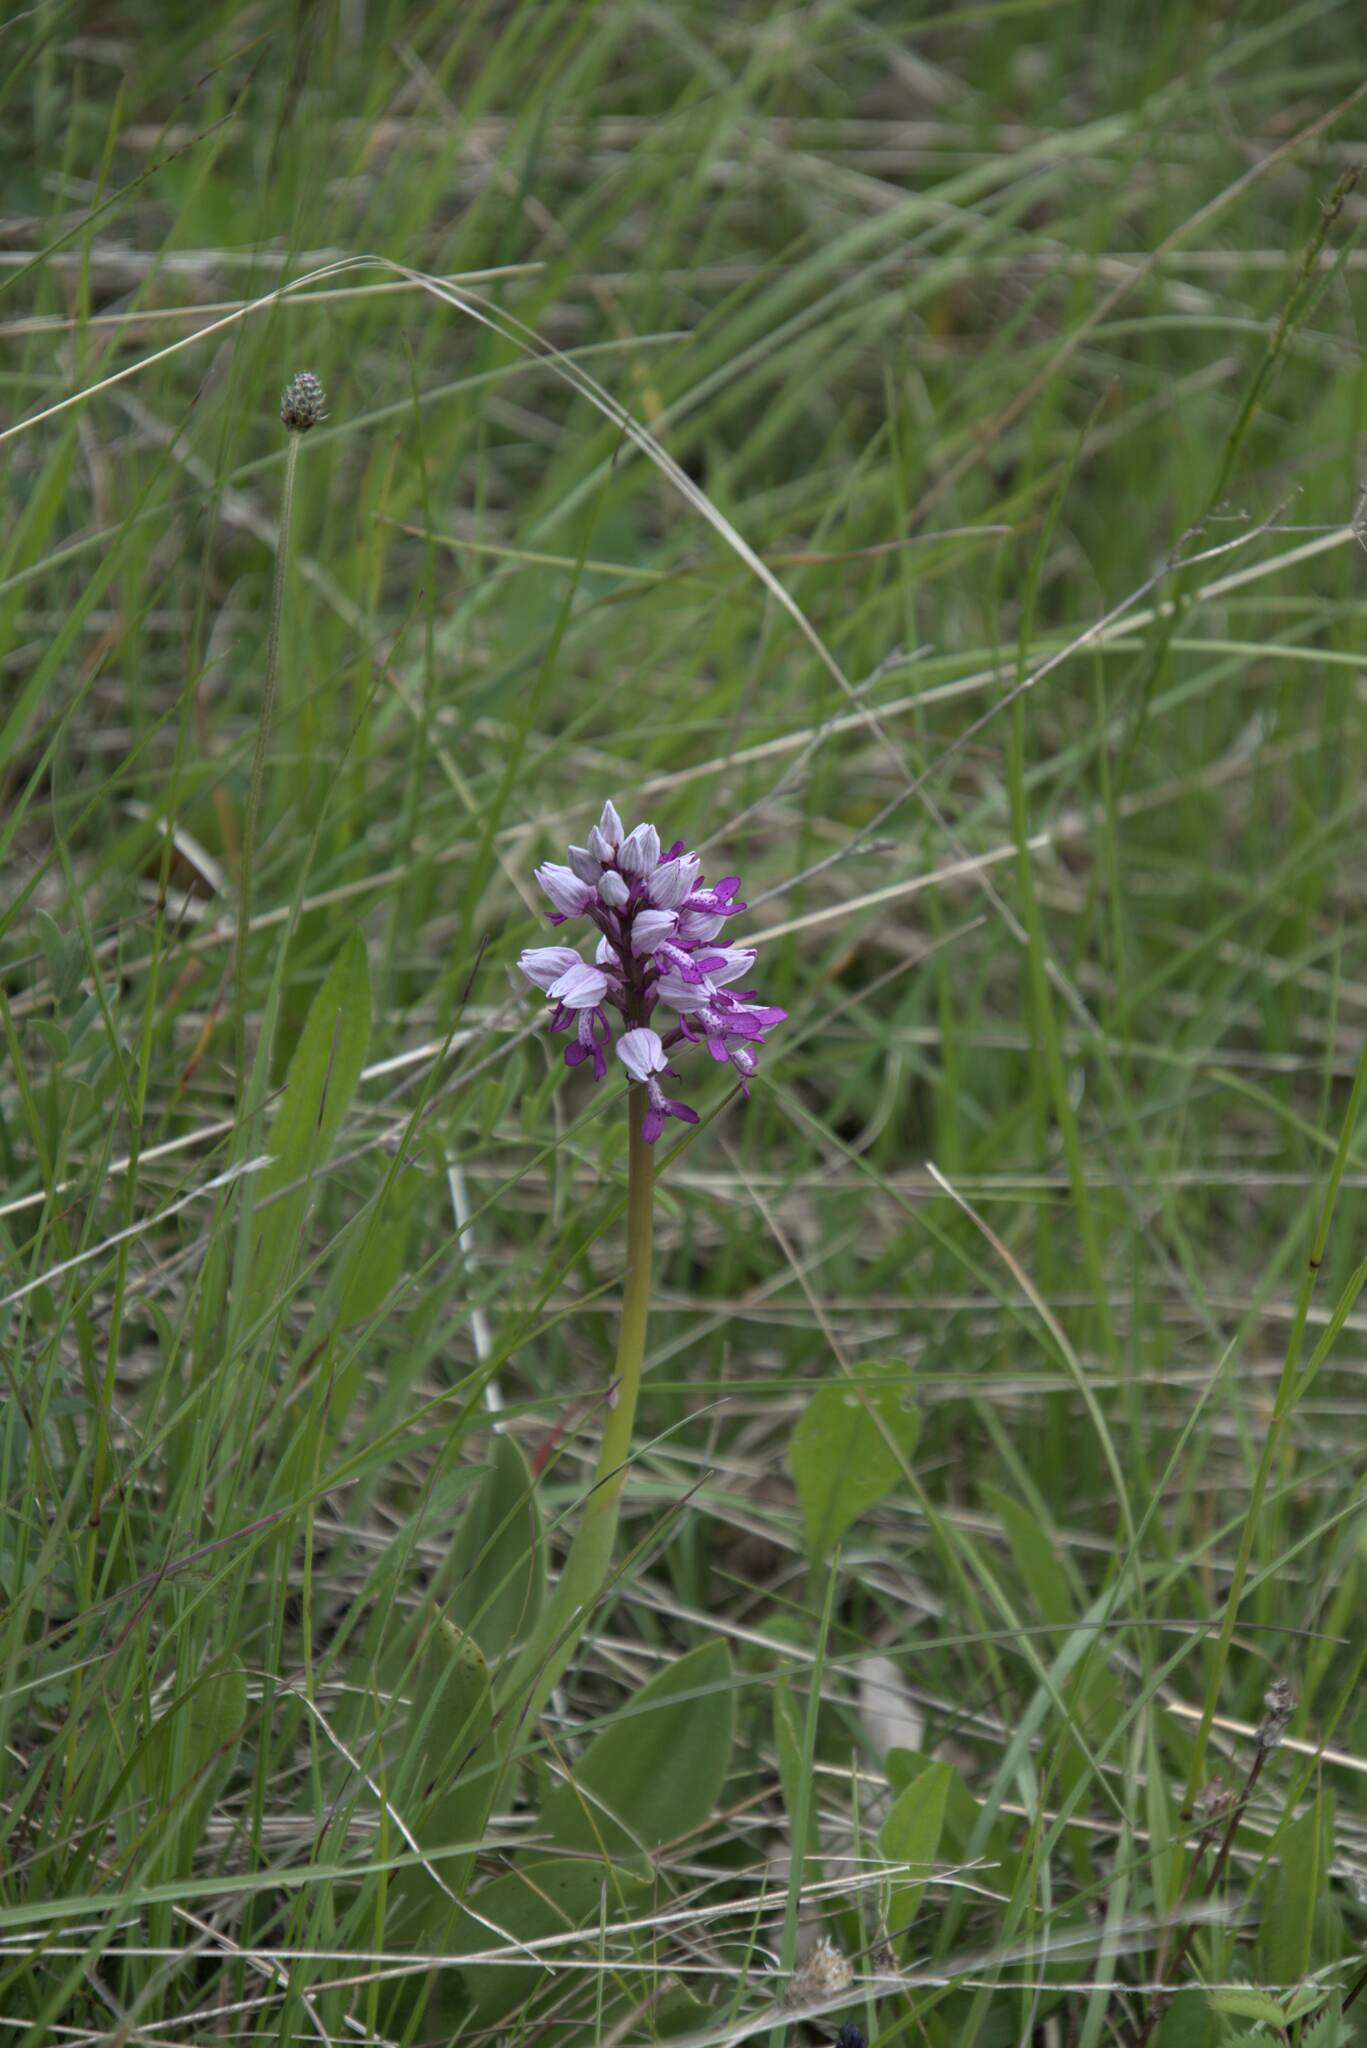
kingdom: Plantae
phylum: Tracheophyta
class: Liliopsida
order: Asparagales
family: Orchidaceae
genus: Orchis
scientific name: Orchis militaris
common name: Military orchid
